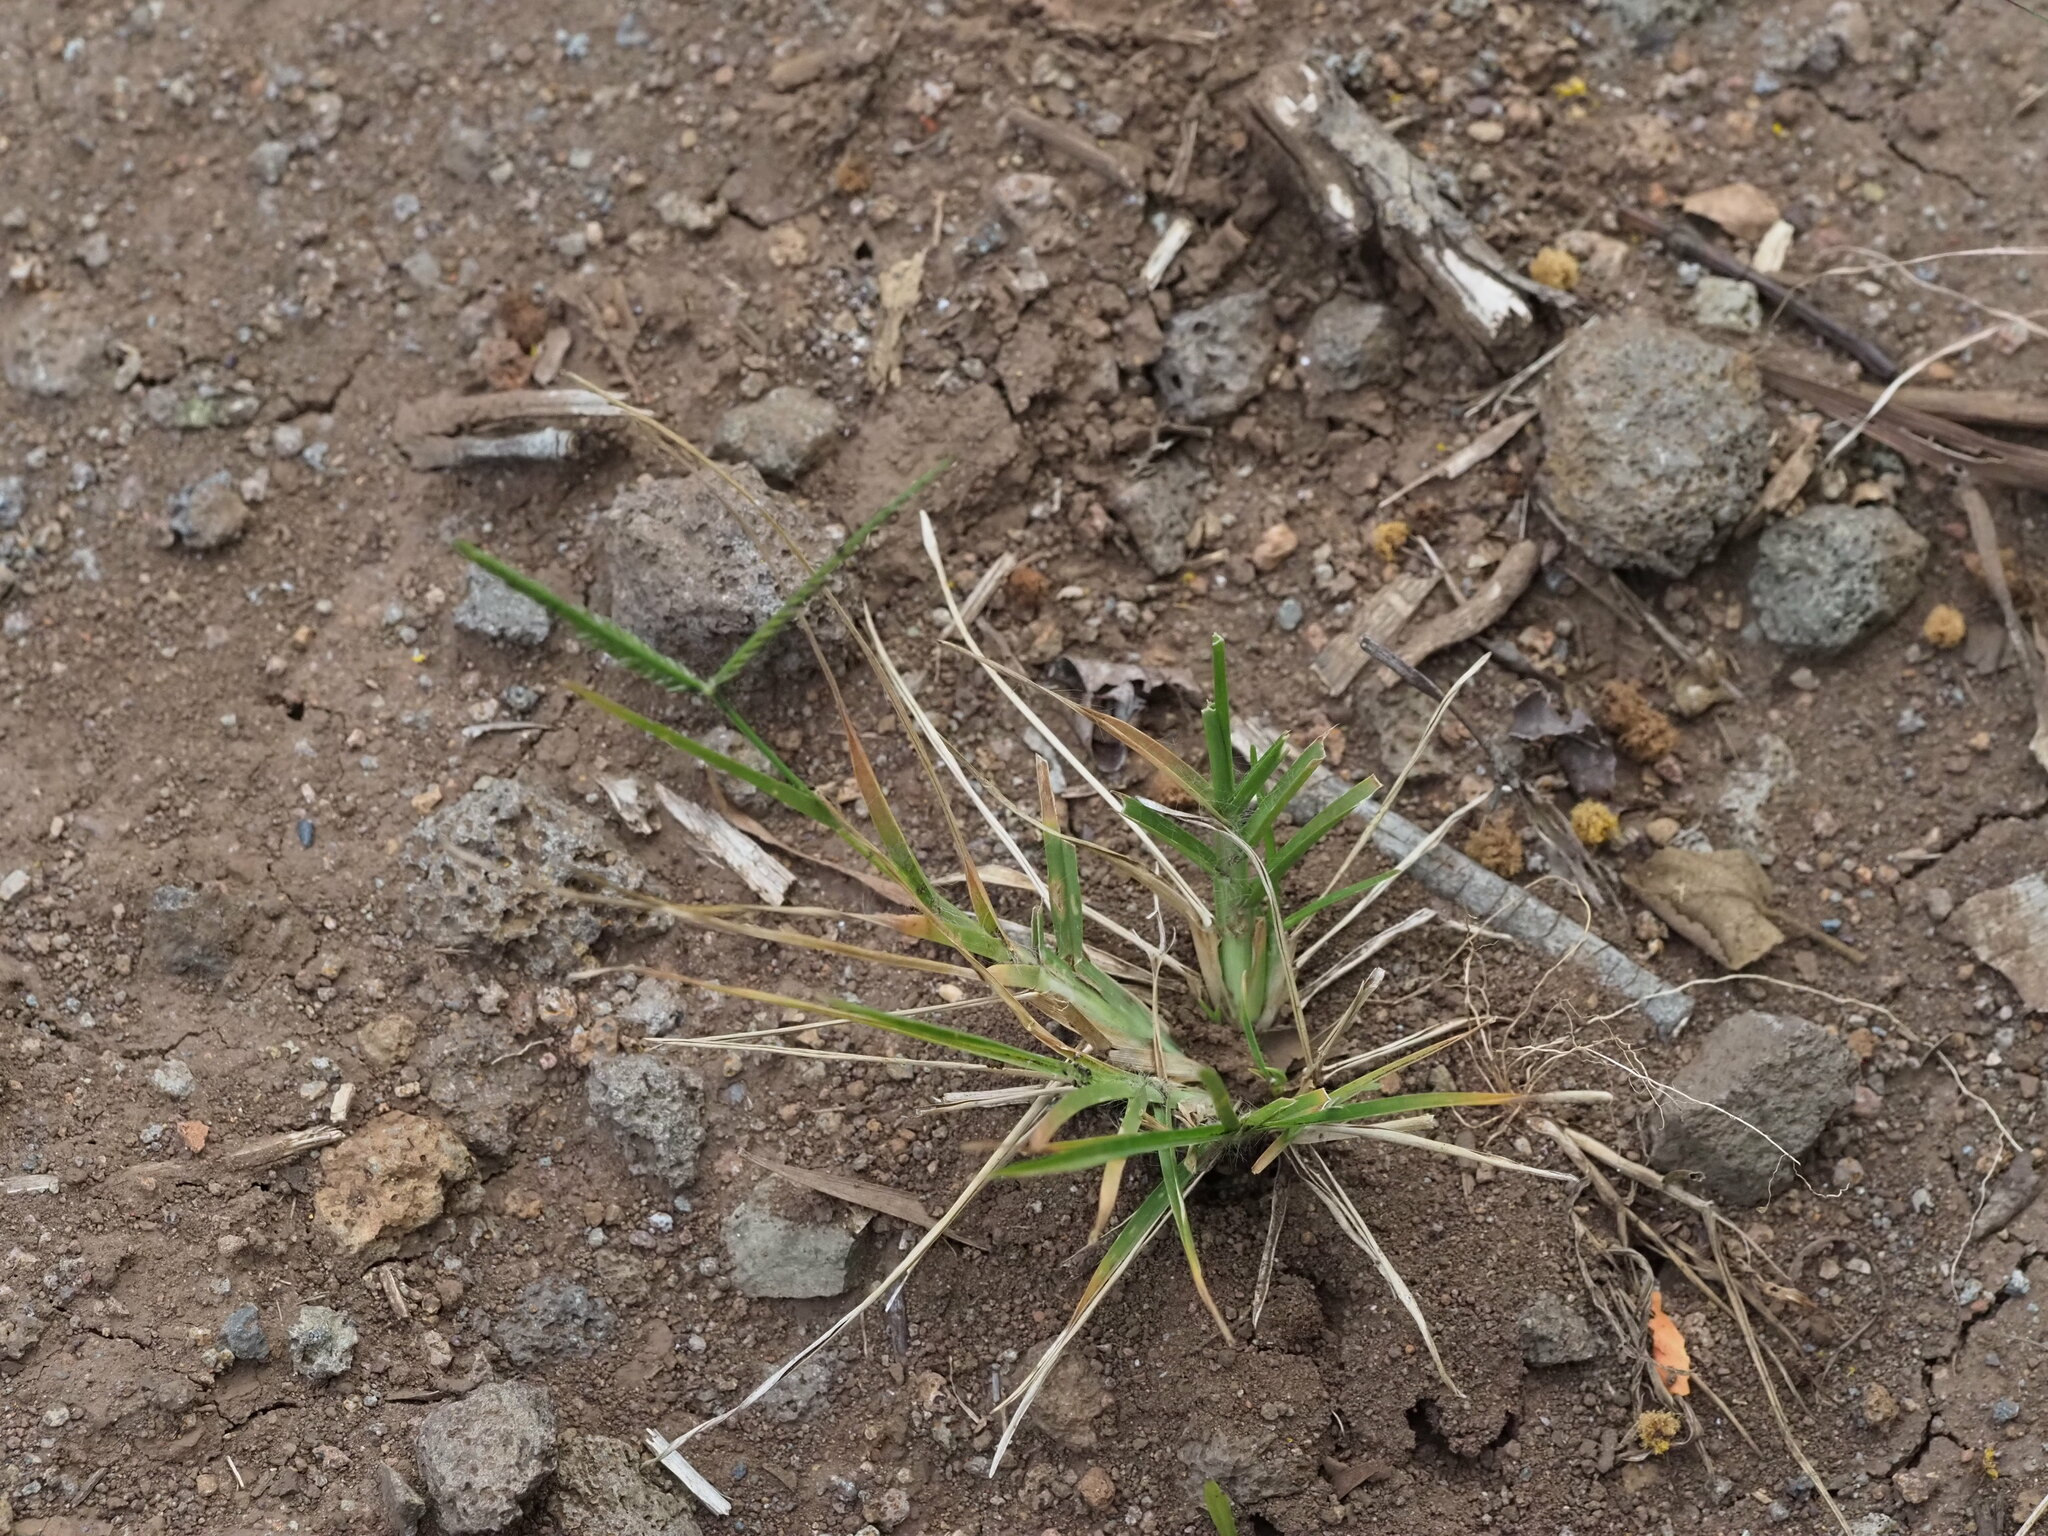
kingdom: Plantae
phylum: Tracheophyta
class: Liliopsida
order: Poales
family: Poaceae
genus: Eleusine
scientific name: Eleusine indica
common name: Yard-grass
